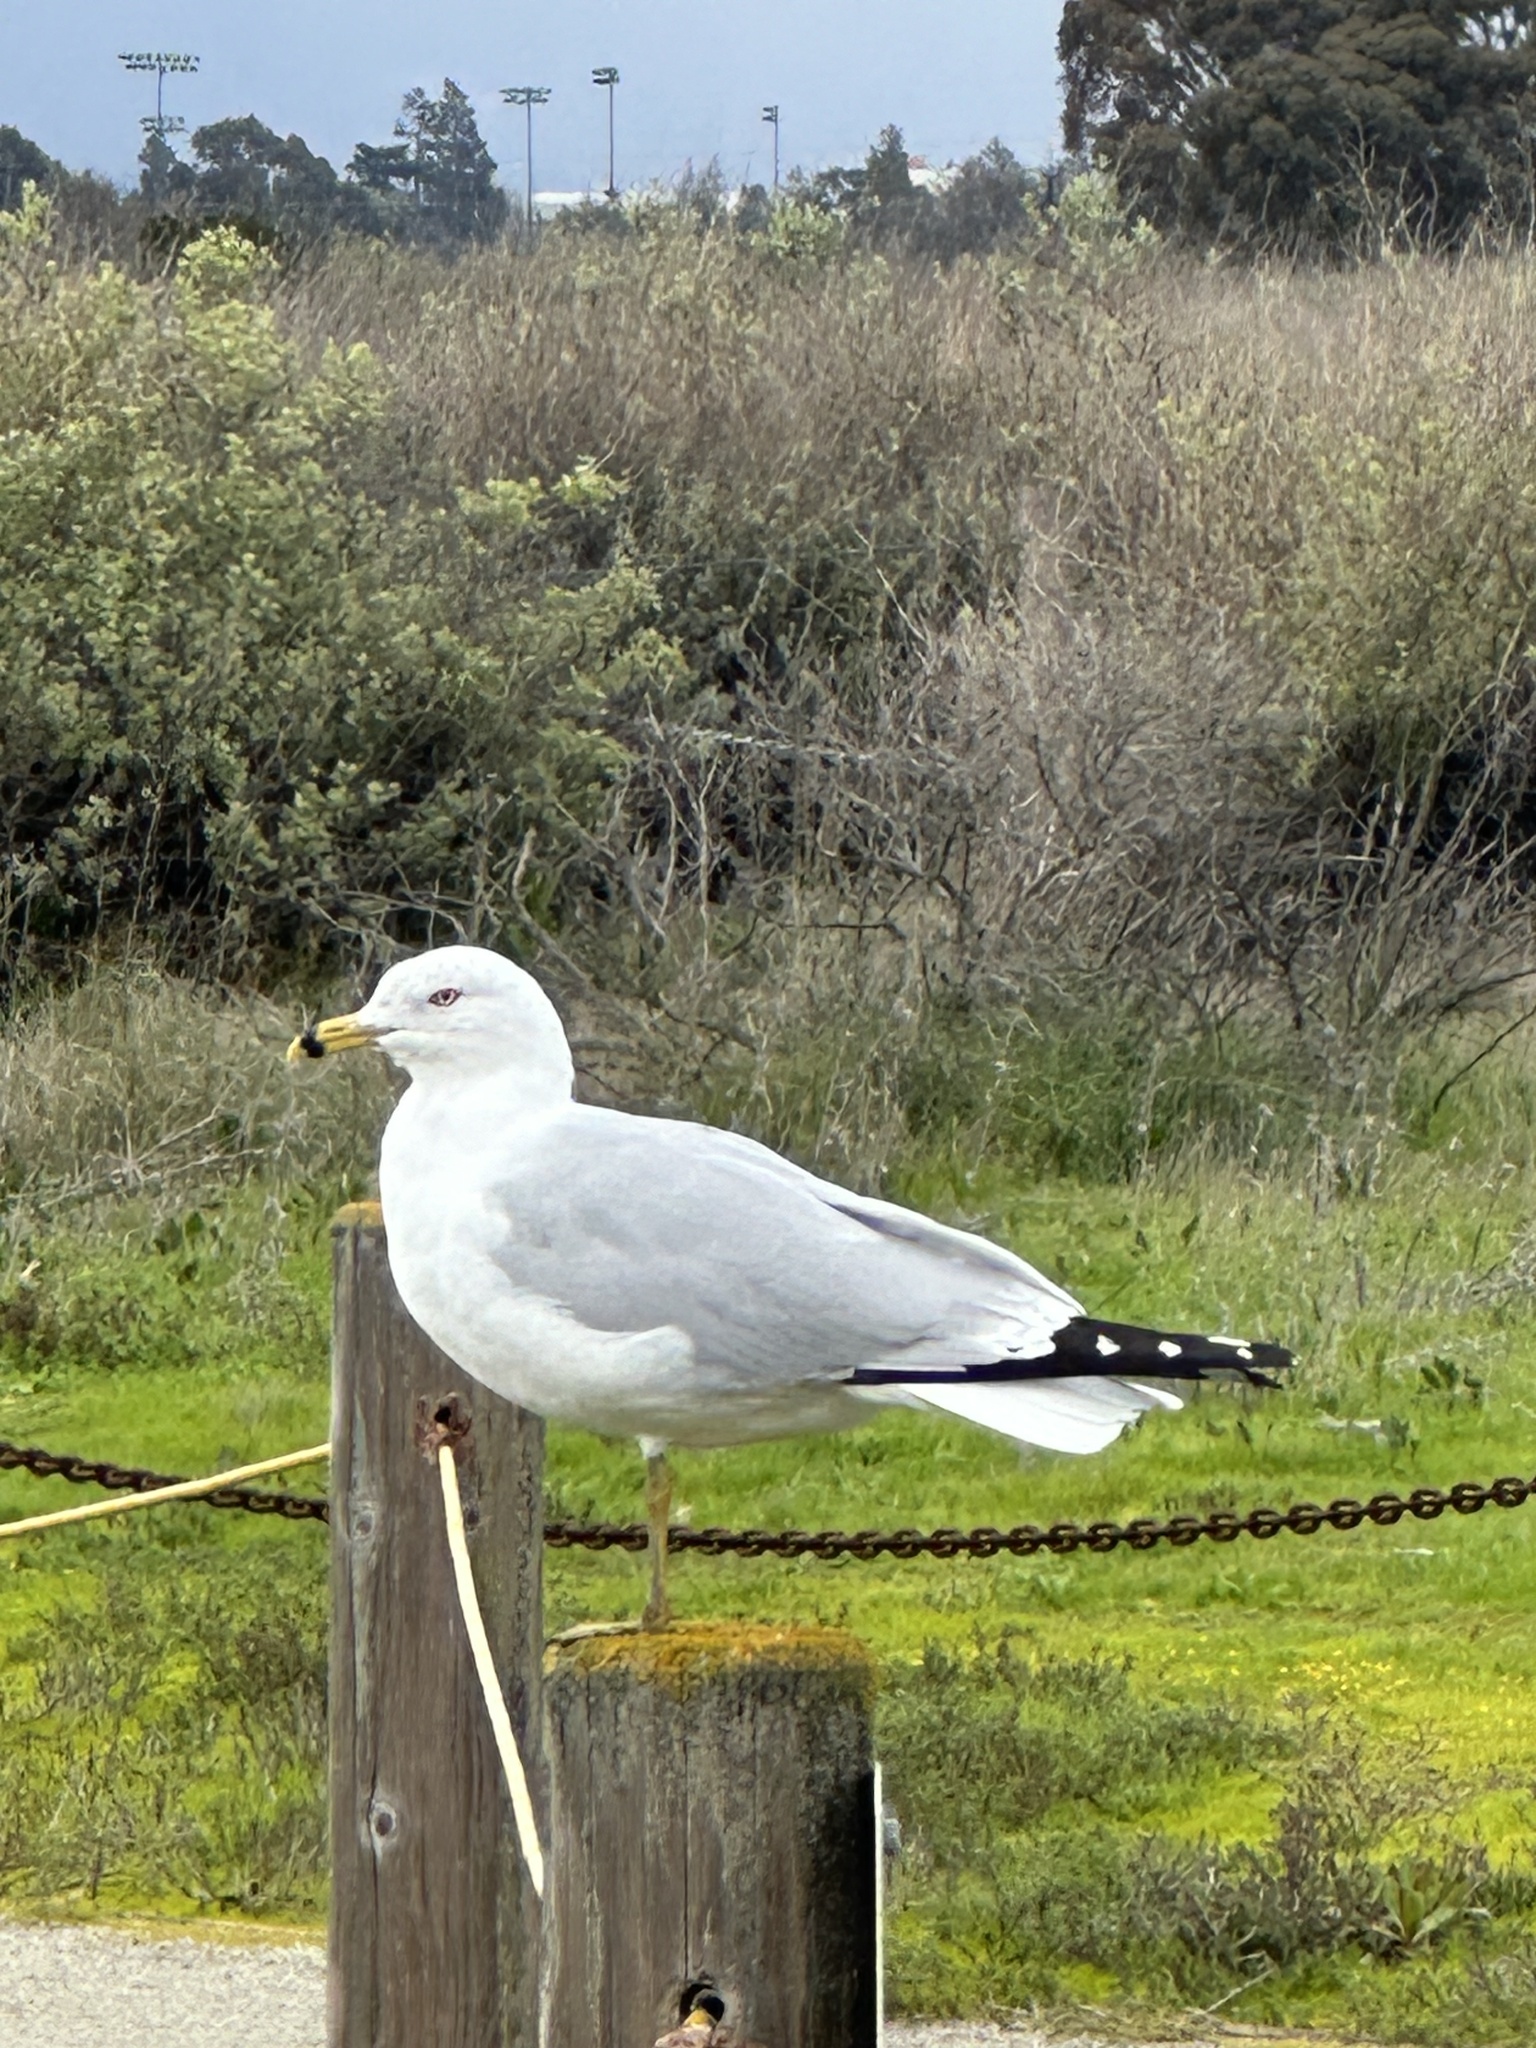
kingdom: Animalia
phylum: Chordata
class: Aves
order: Charadriiformes
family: Laridae
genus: Larus
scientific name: Larus delawarensis
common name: Ring-billed gull
